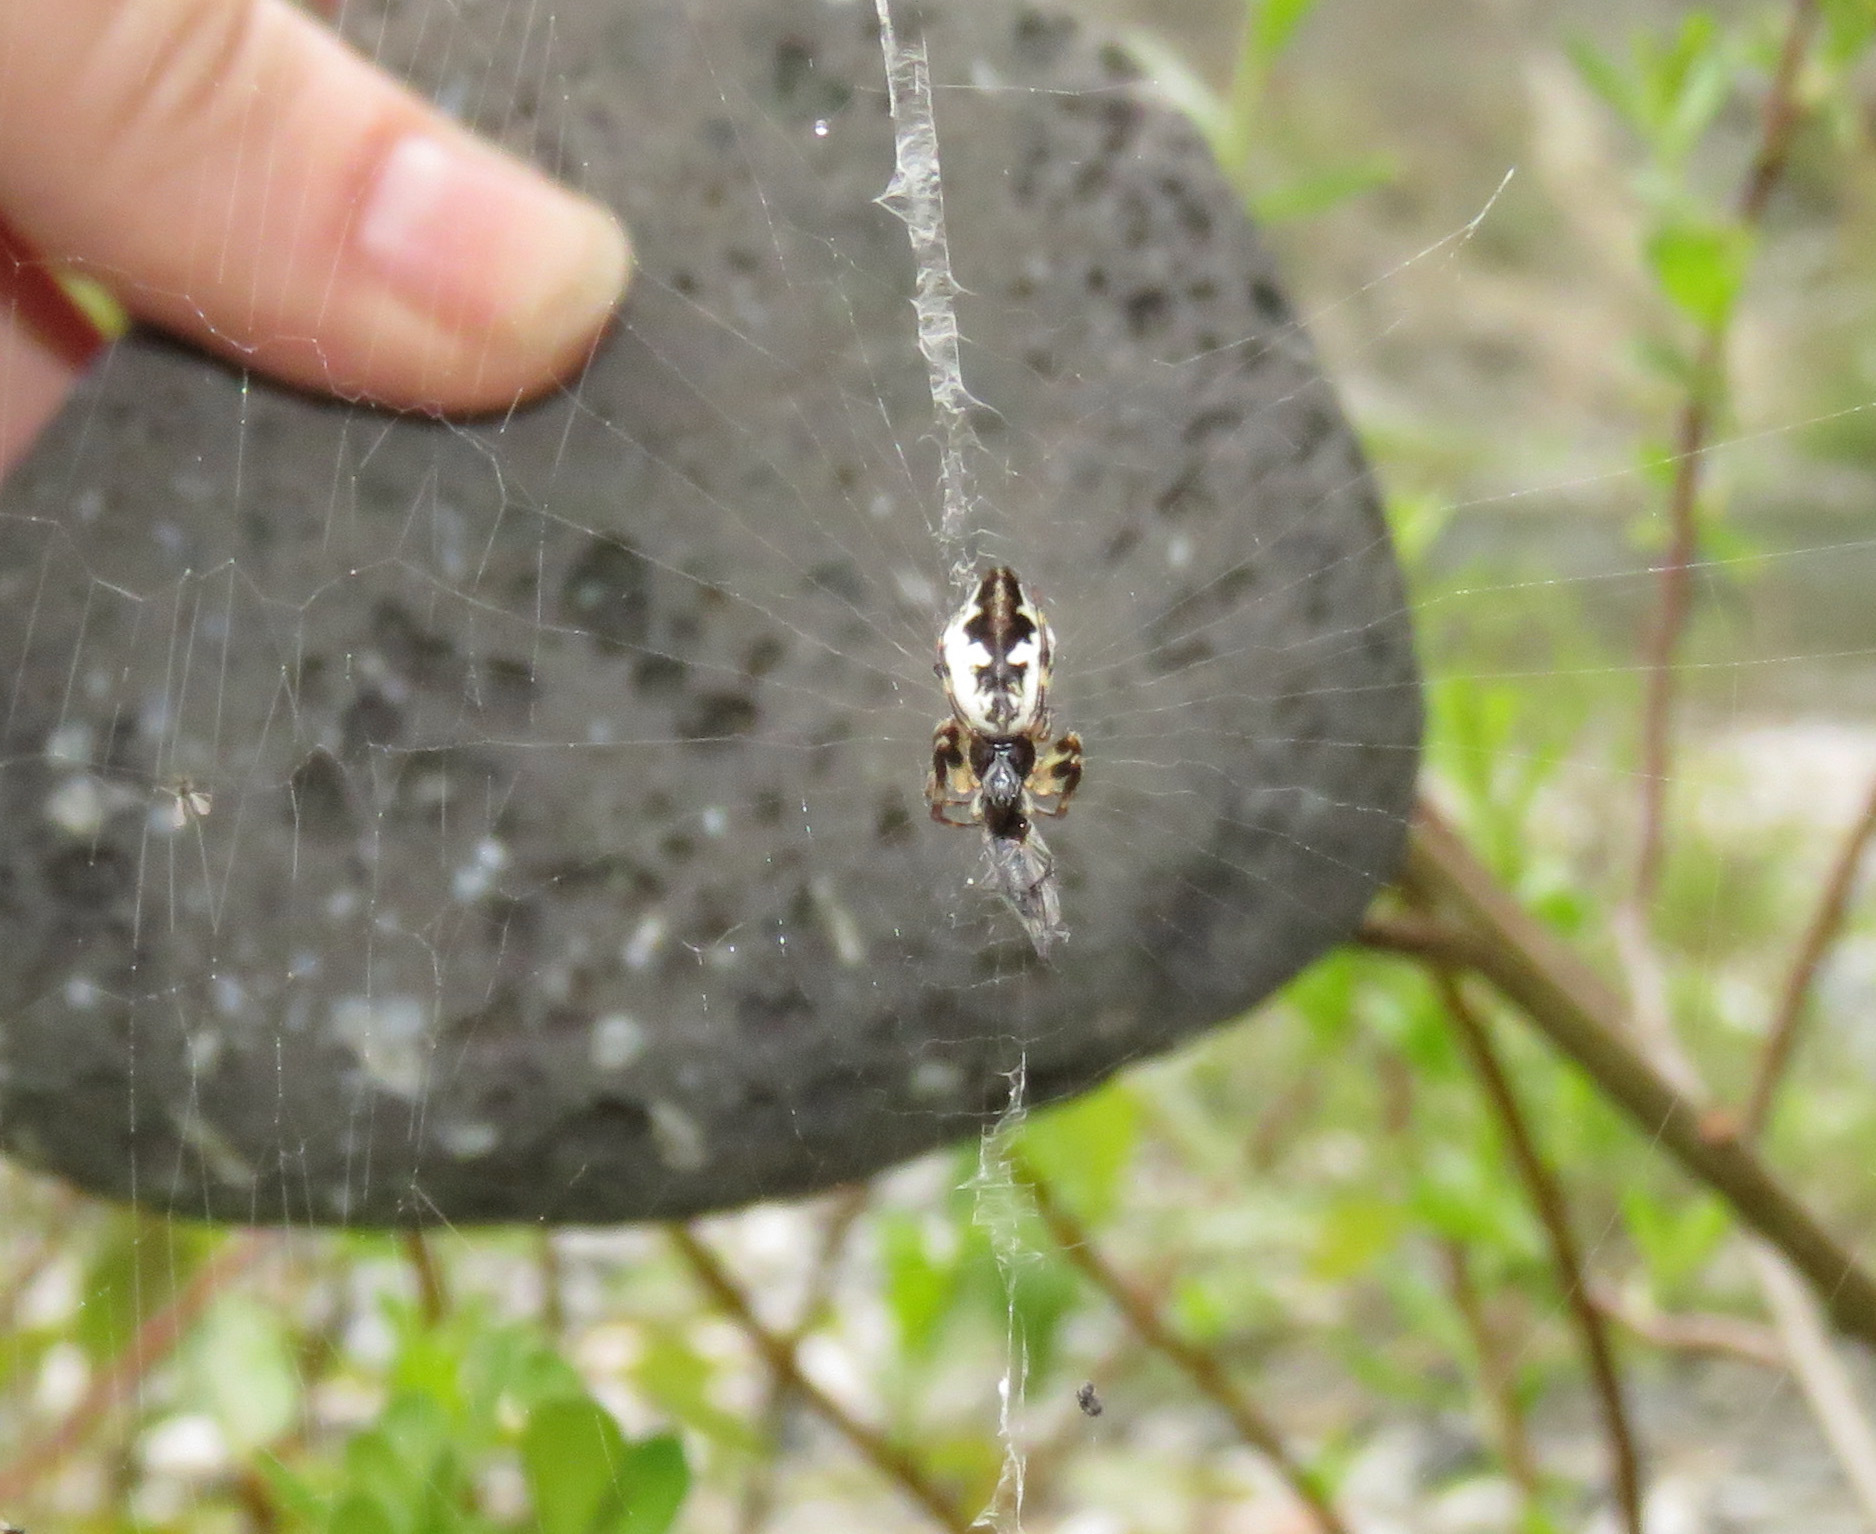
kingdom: Animalia
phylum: Arthropoda
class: Arachnida
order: Araneae
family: Araneidae
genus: Cyclosa
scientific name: Cyclosa conica
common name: Conical trashline orbweaver
